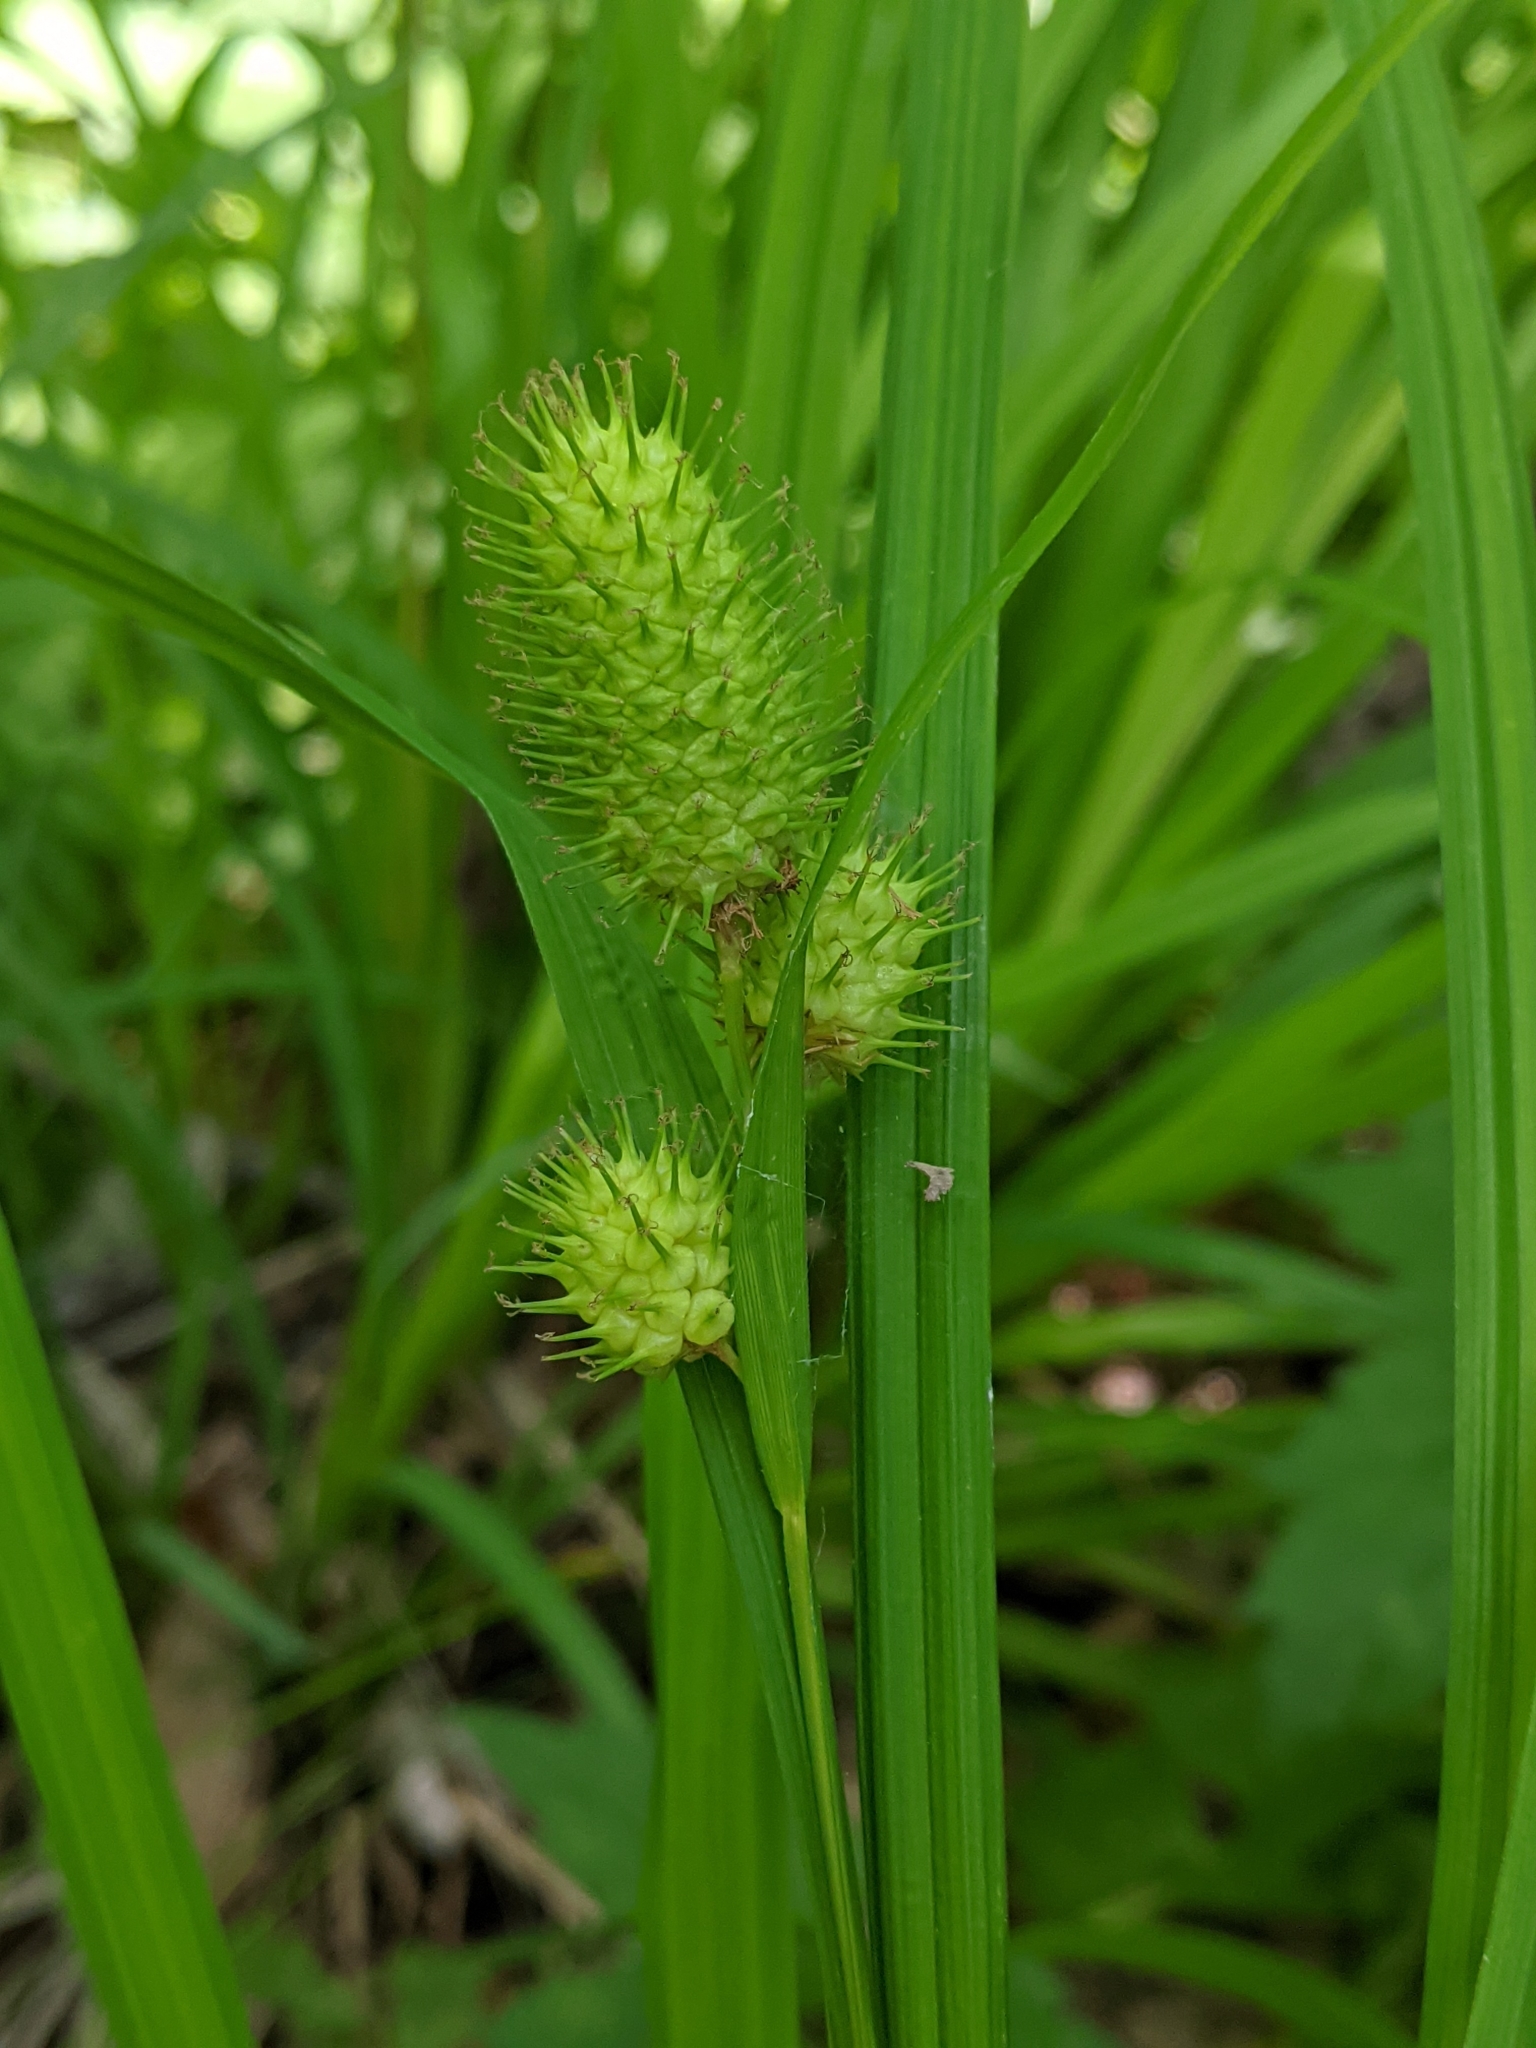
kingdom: Plantae
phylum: Tracheophyta
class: Liliopsida
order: Poales
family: Cyperaceae
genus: Carex
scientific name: Carex typhina
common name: Cattail sedge
